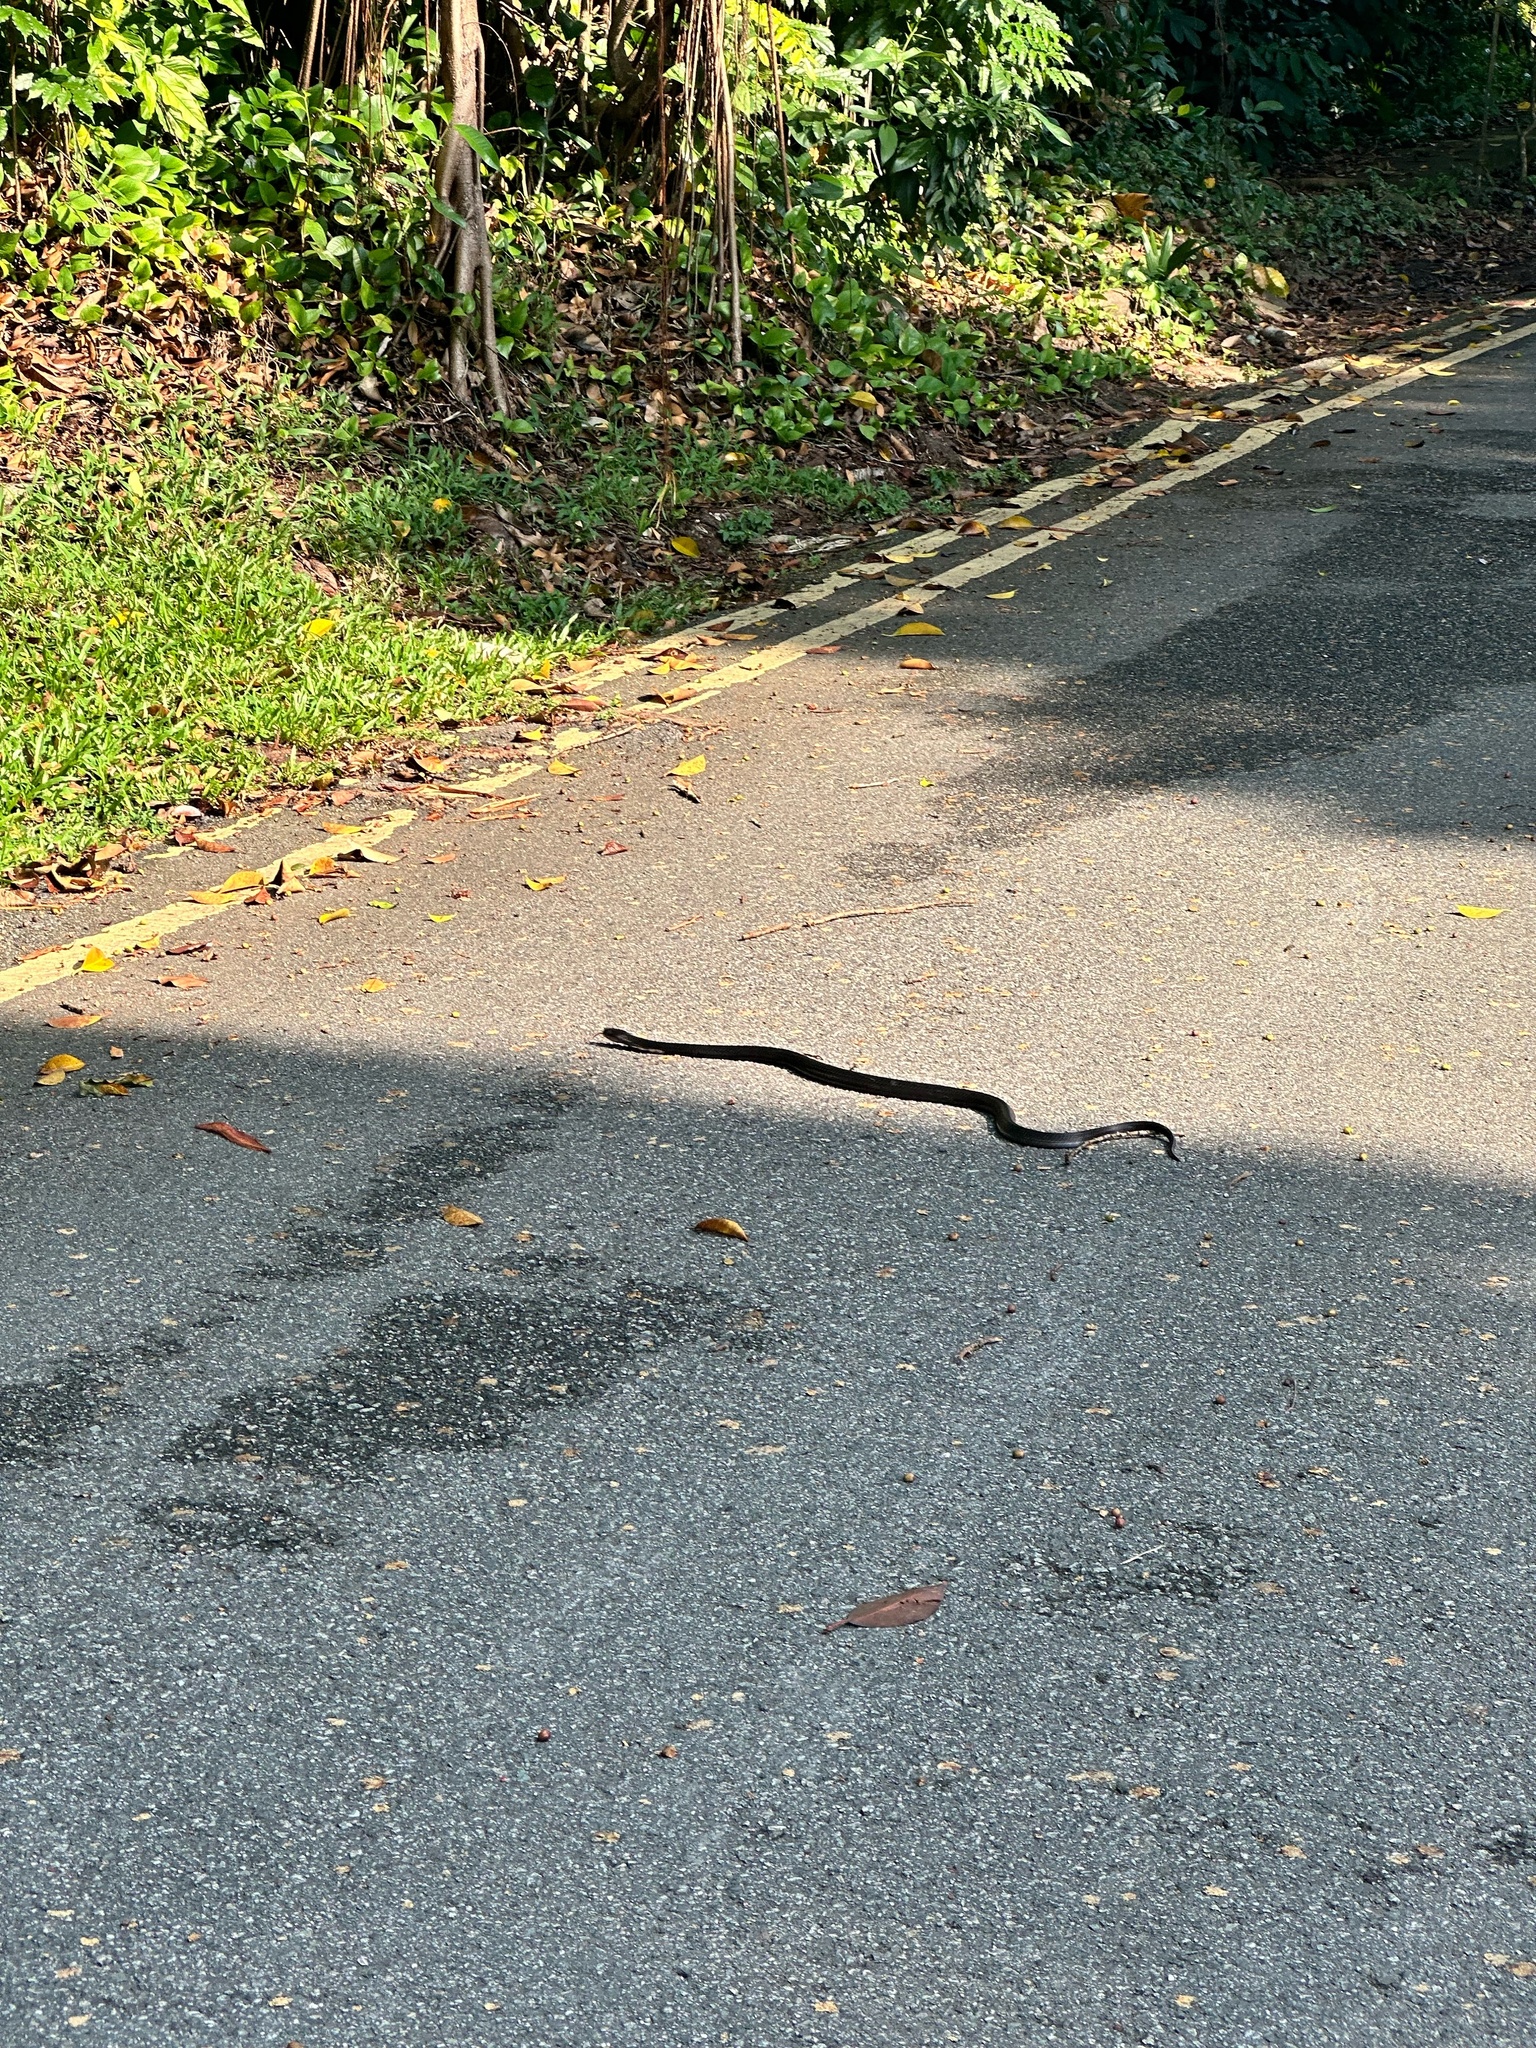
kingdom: Animalia
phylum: Chordata
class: Squamata
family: Elapidae
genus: Naja
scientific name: Naja sumatrana
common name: Equatorial spitting cobra
